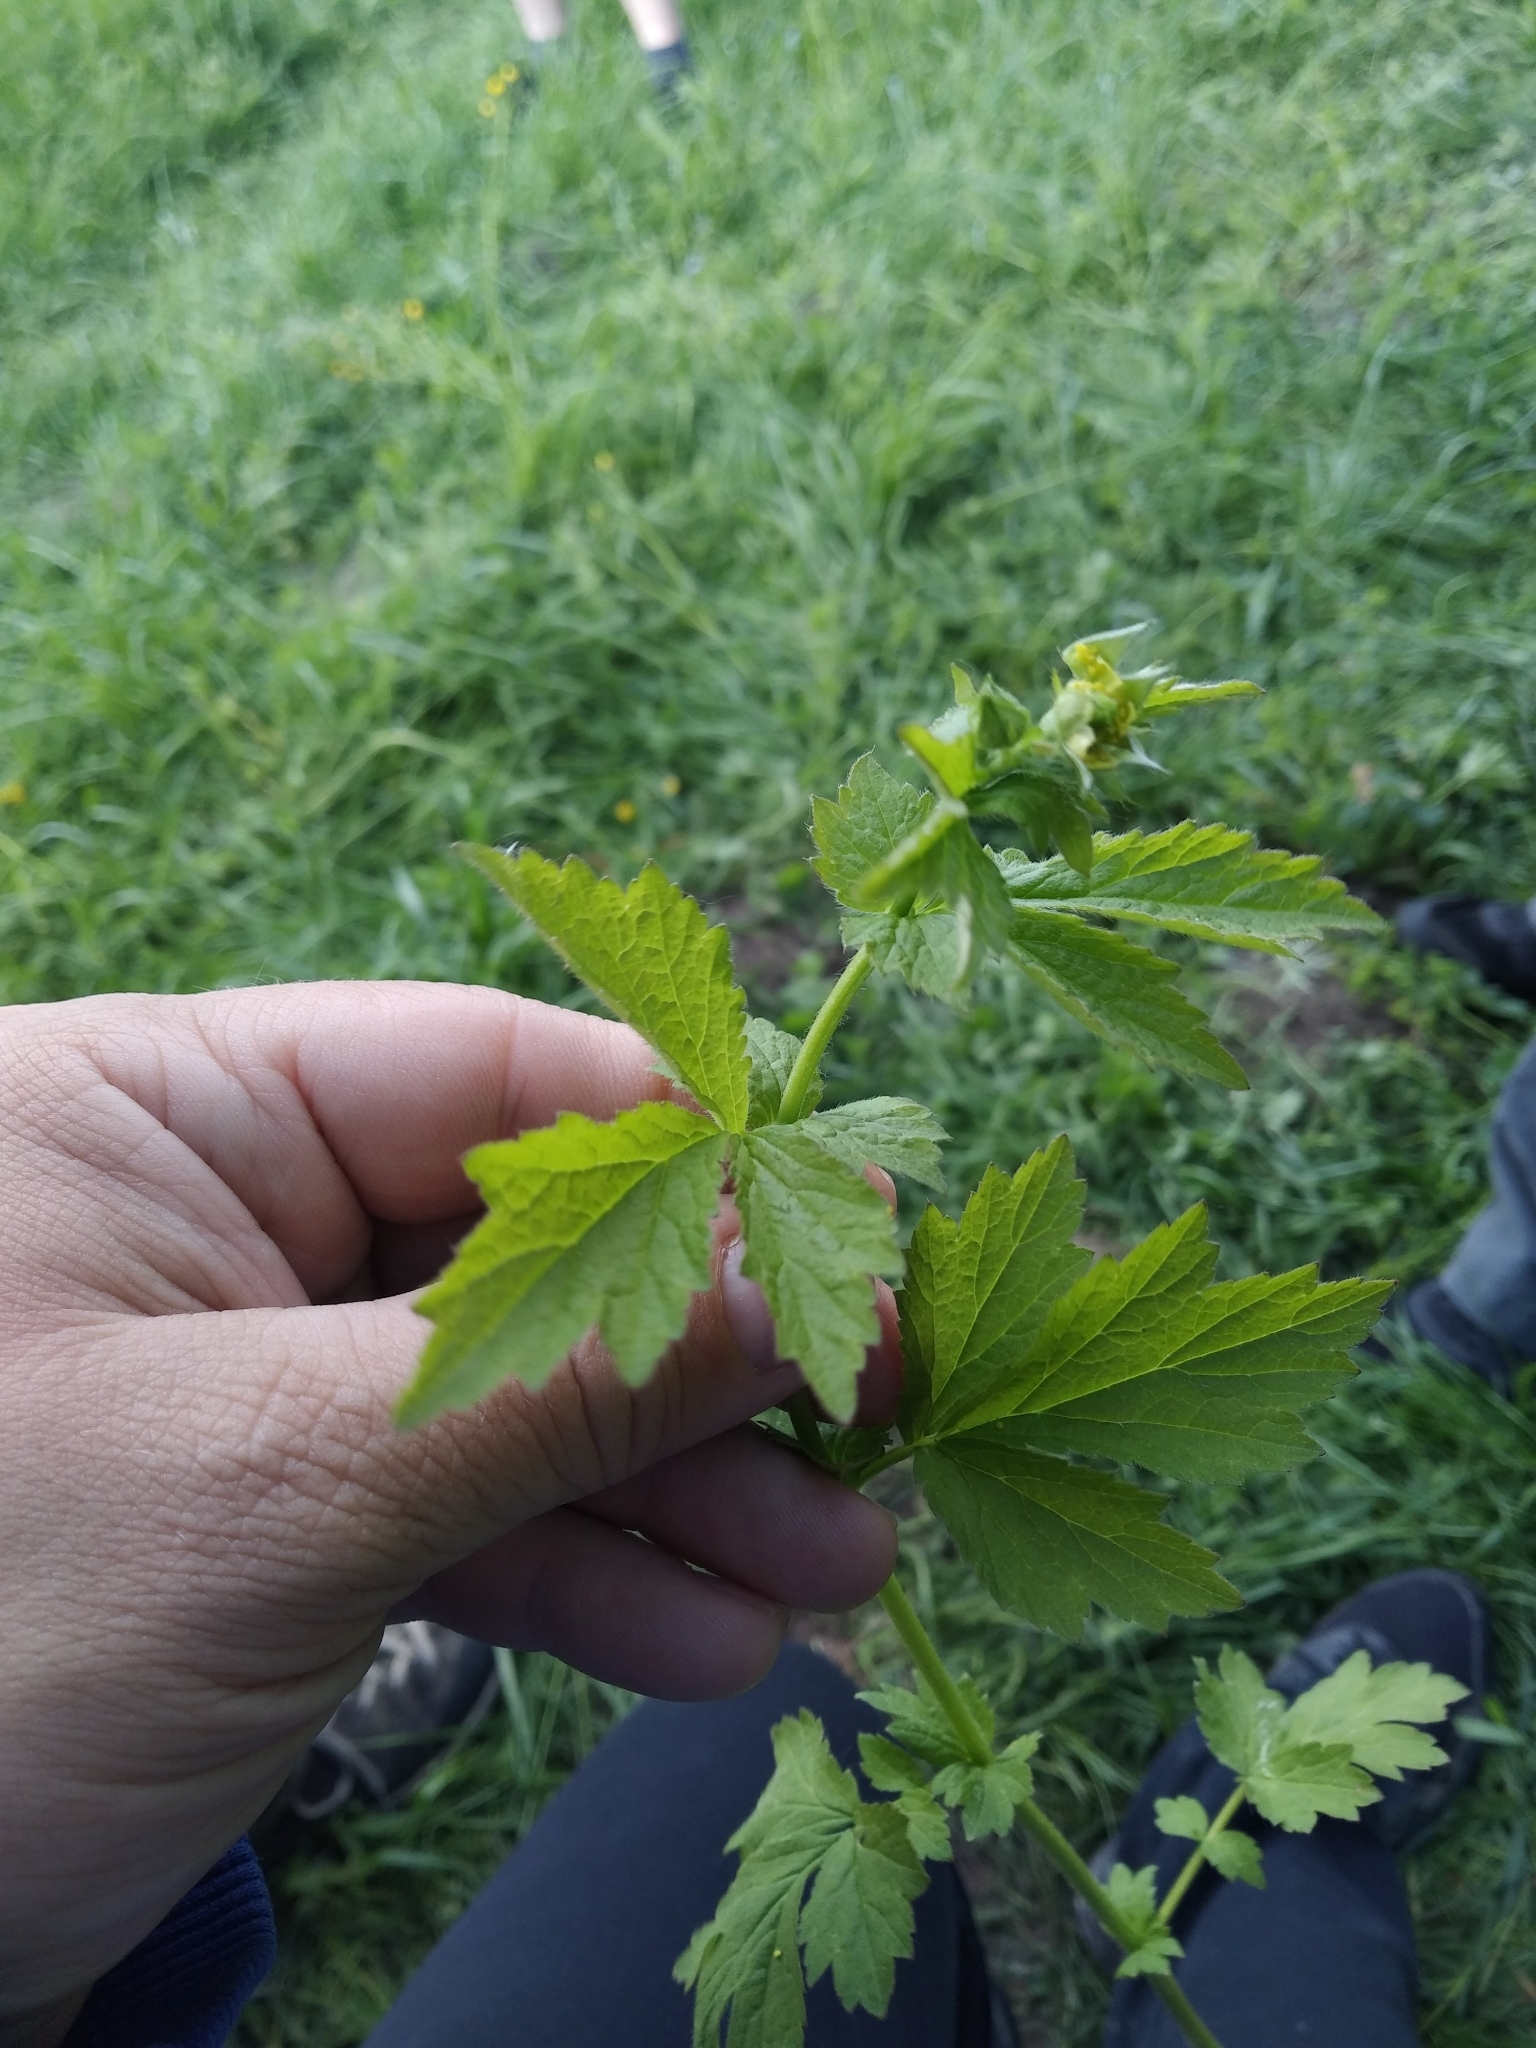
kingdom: Plantae
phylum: Tracheophyta
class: Magnoliopsida
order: Rosales
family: Rosaceae
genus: Geum
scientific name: Geum urbanum
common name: Wood avens
